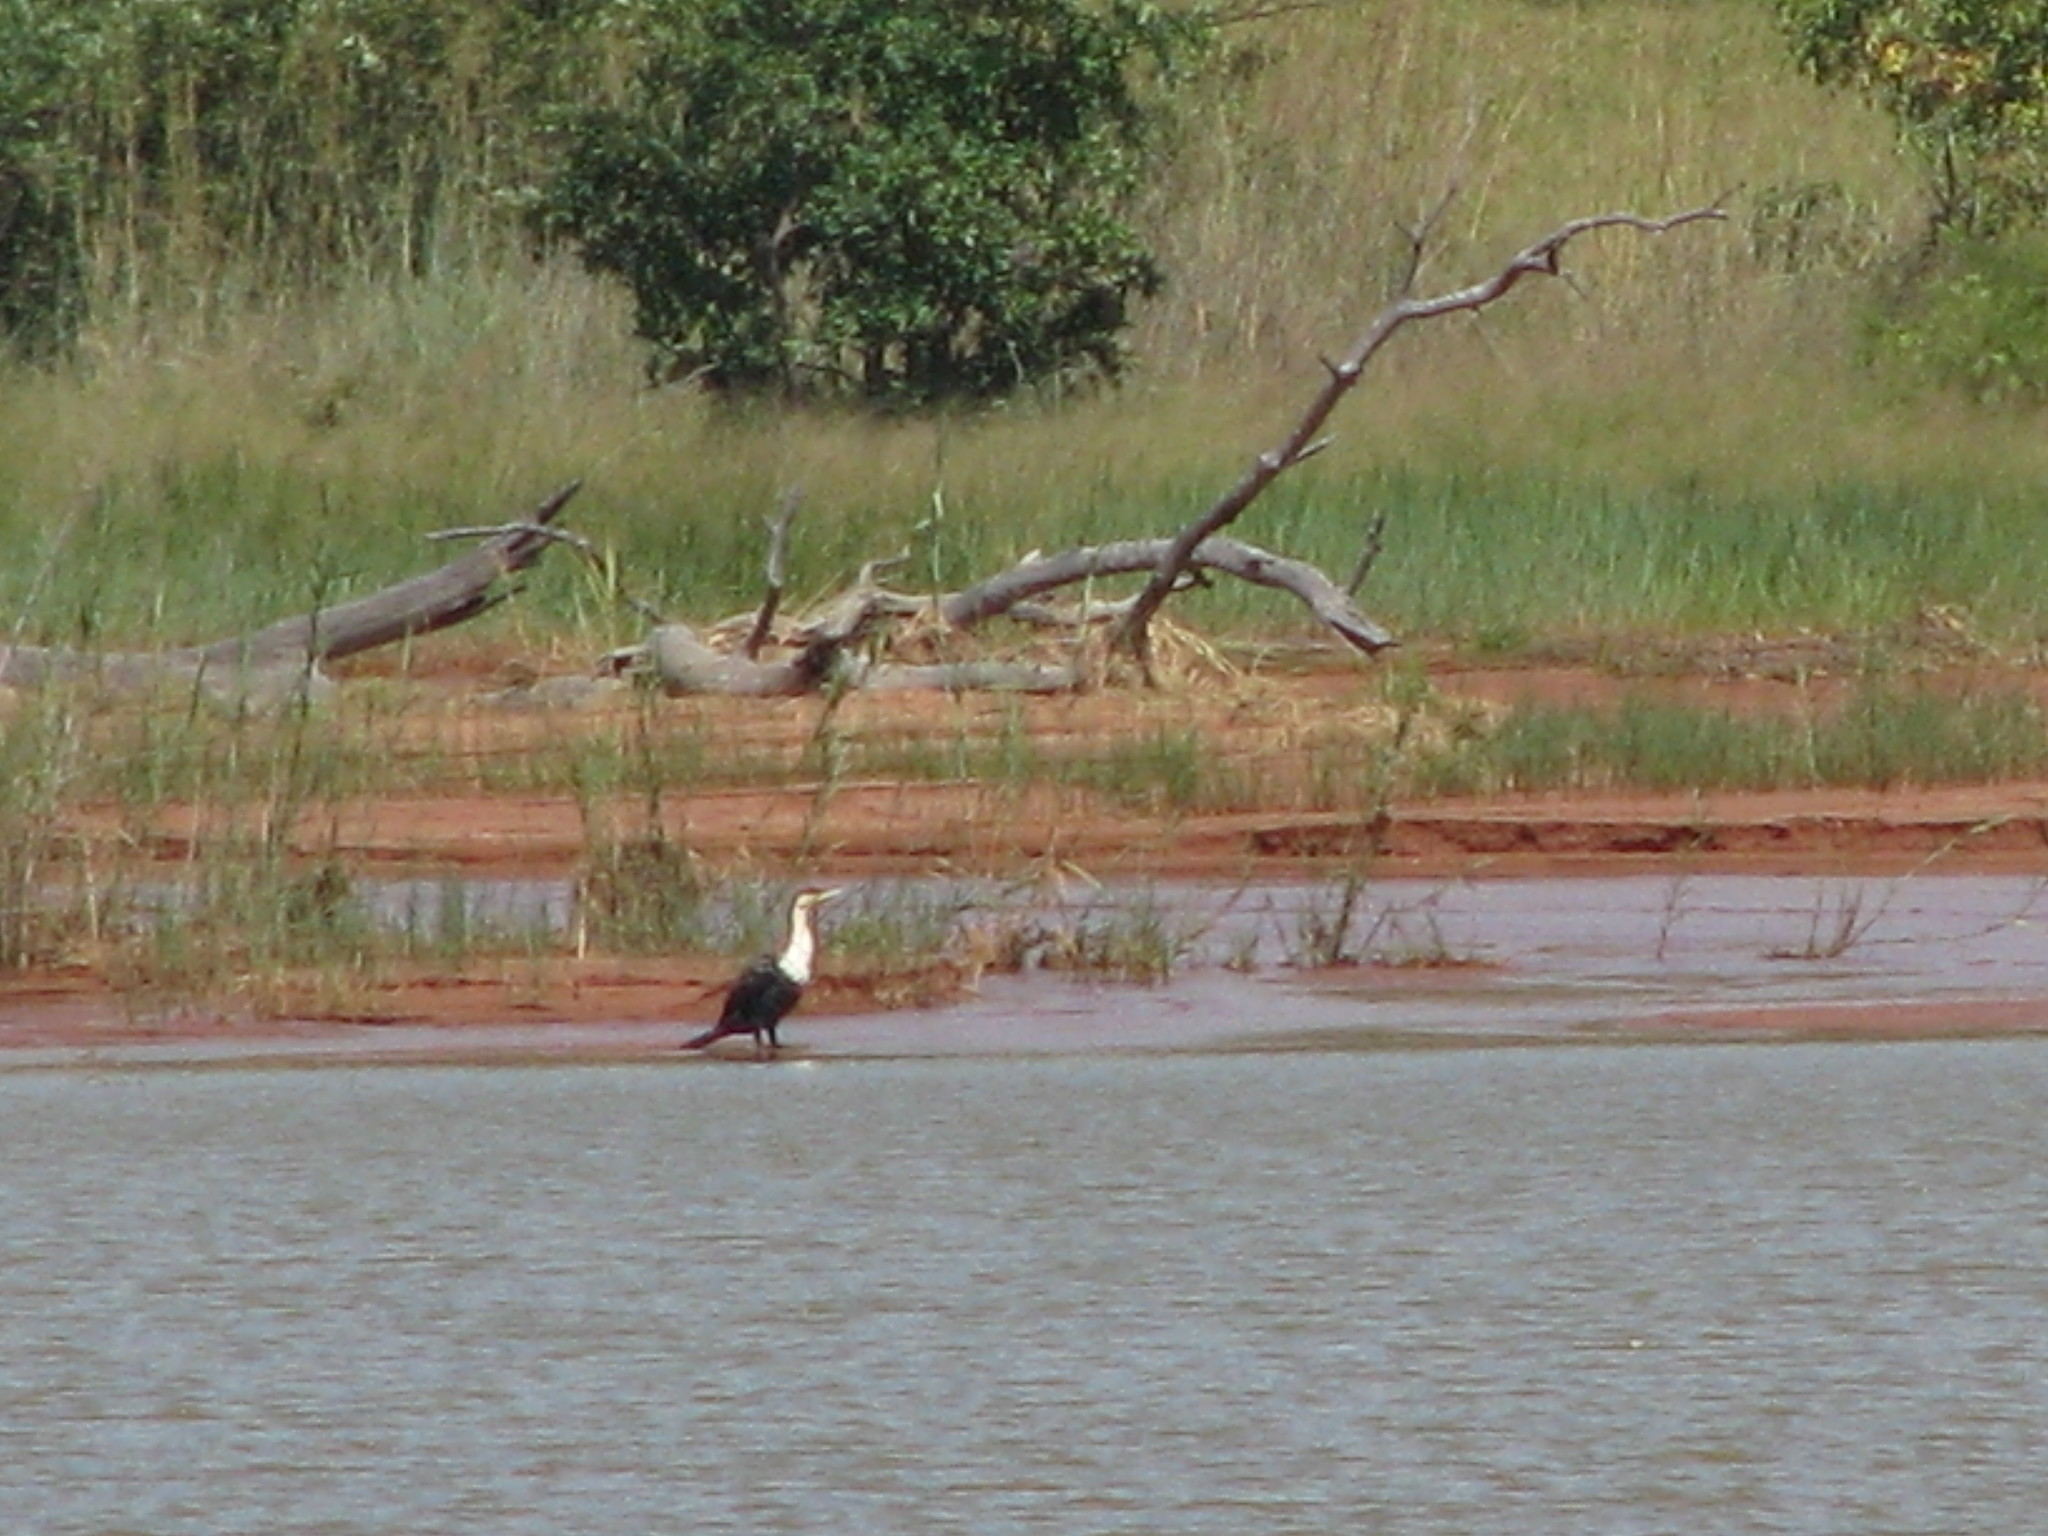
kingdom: Animalia
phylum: Chordata
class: Aves
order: Suliformes
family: Phalacrocoracidae
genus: Phalacrocorax
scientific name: Phalacrocorax carbo
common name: Great cormorant
